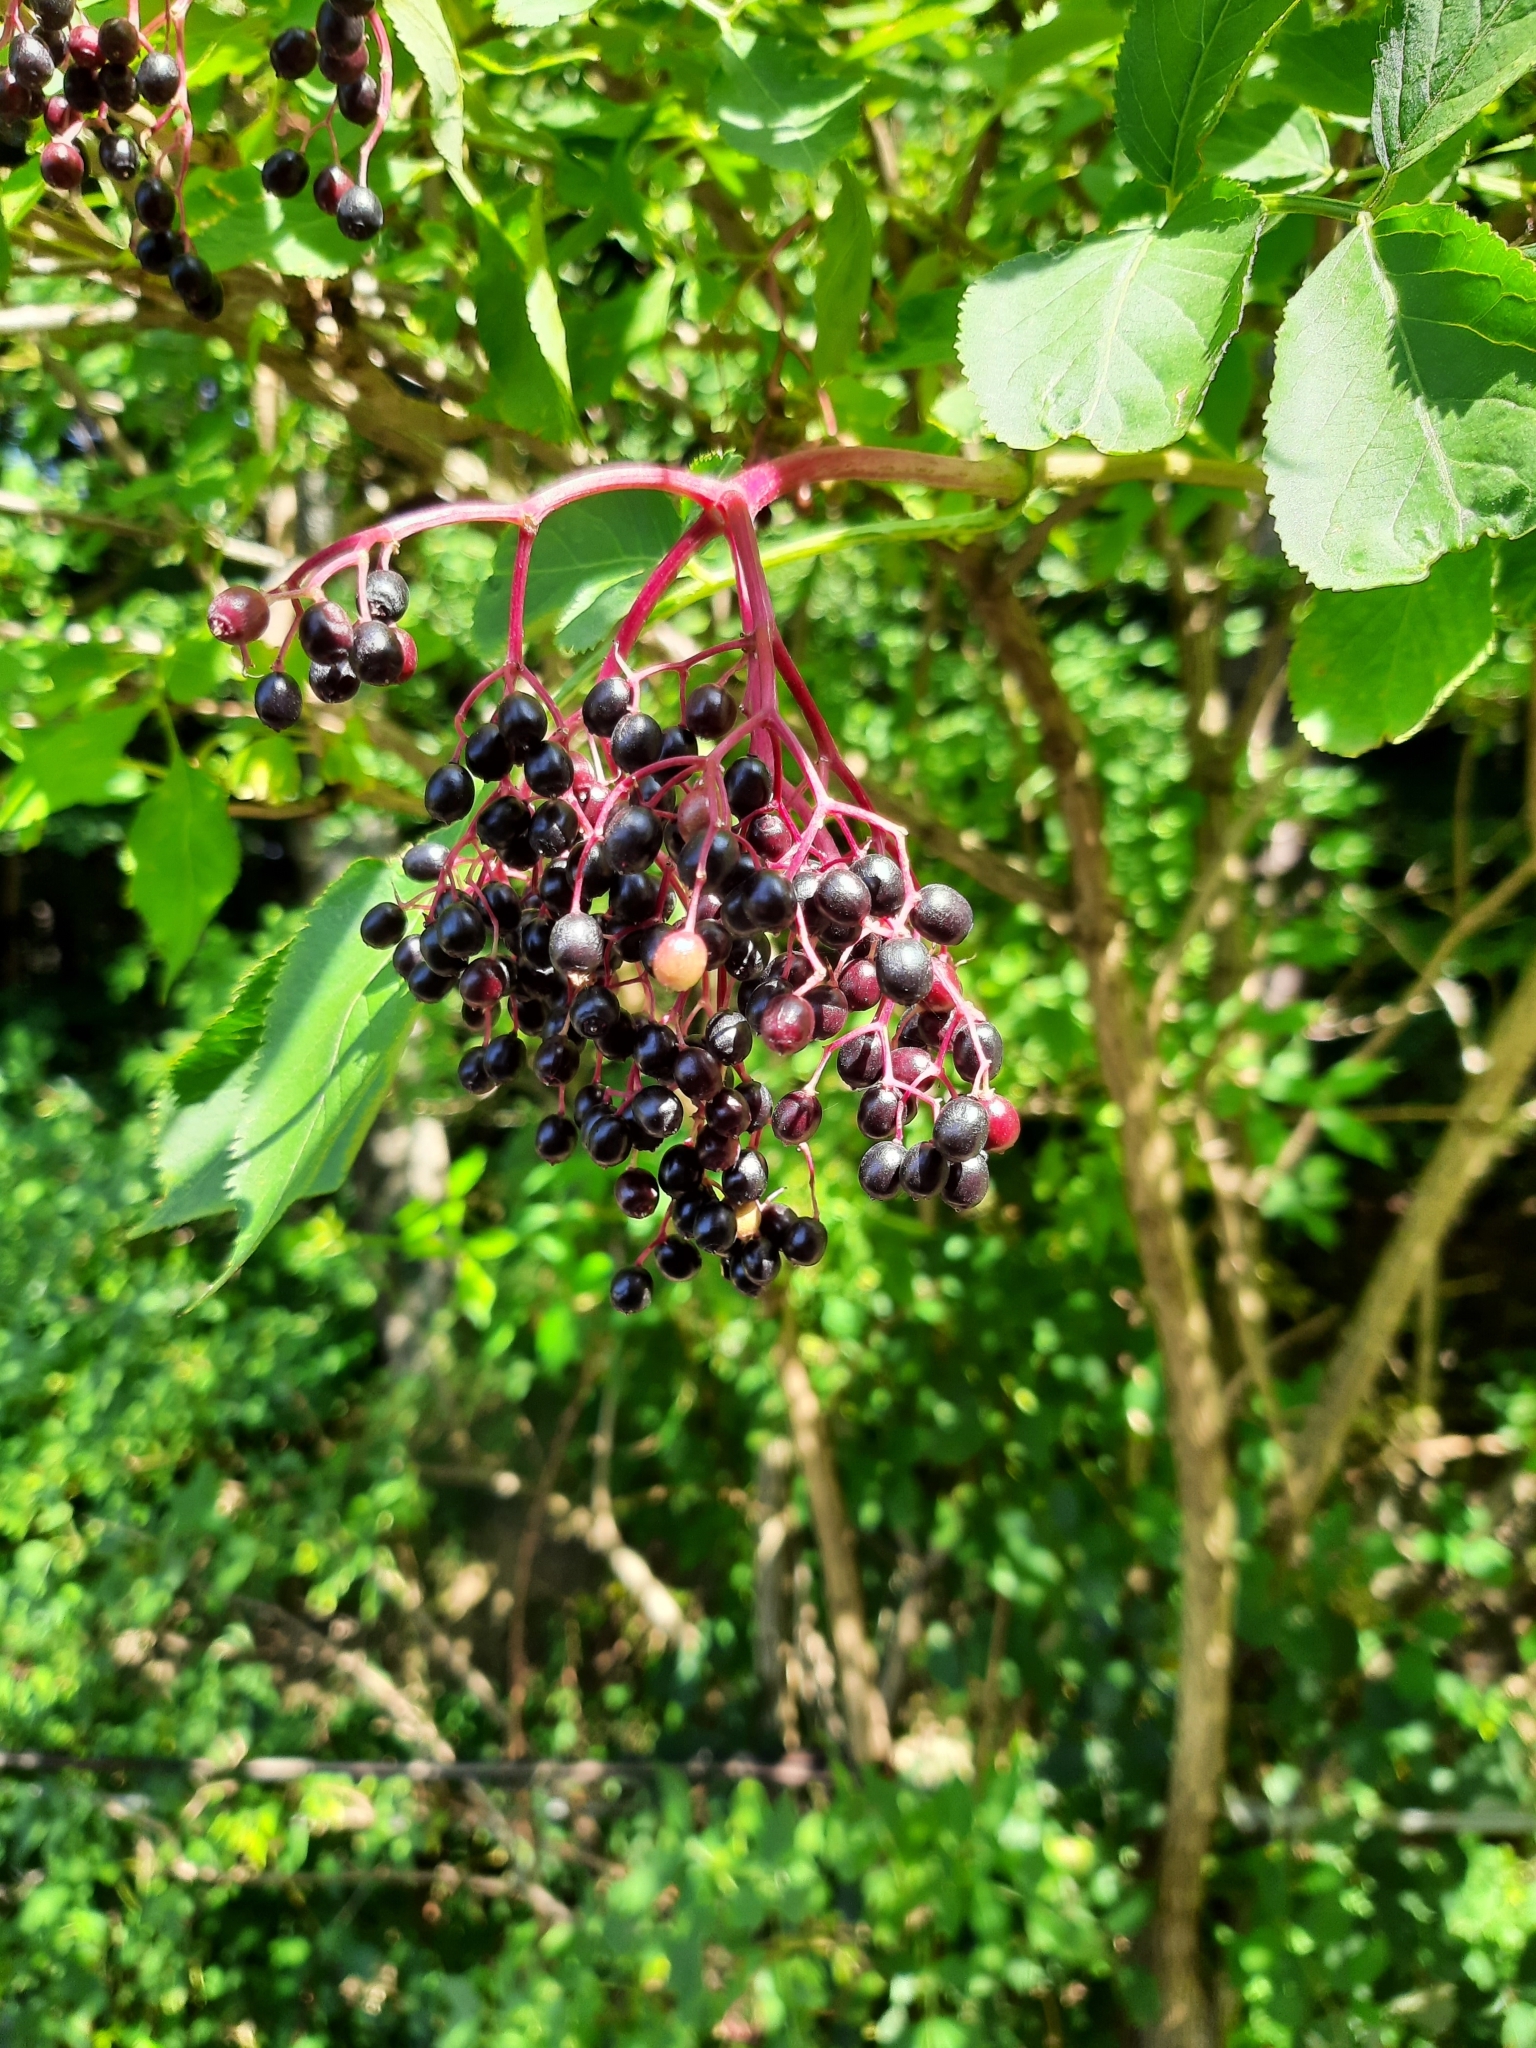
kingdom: Plantae
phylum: Tracheophyta
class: Magnoliopsida
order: Dipsacales
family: Viburnaceae
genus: Sambucus
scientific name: Sambucus nigra
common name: Elder
